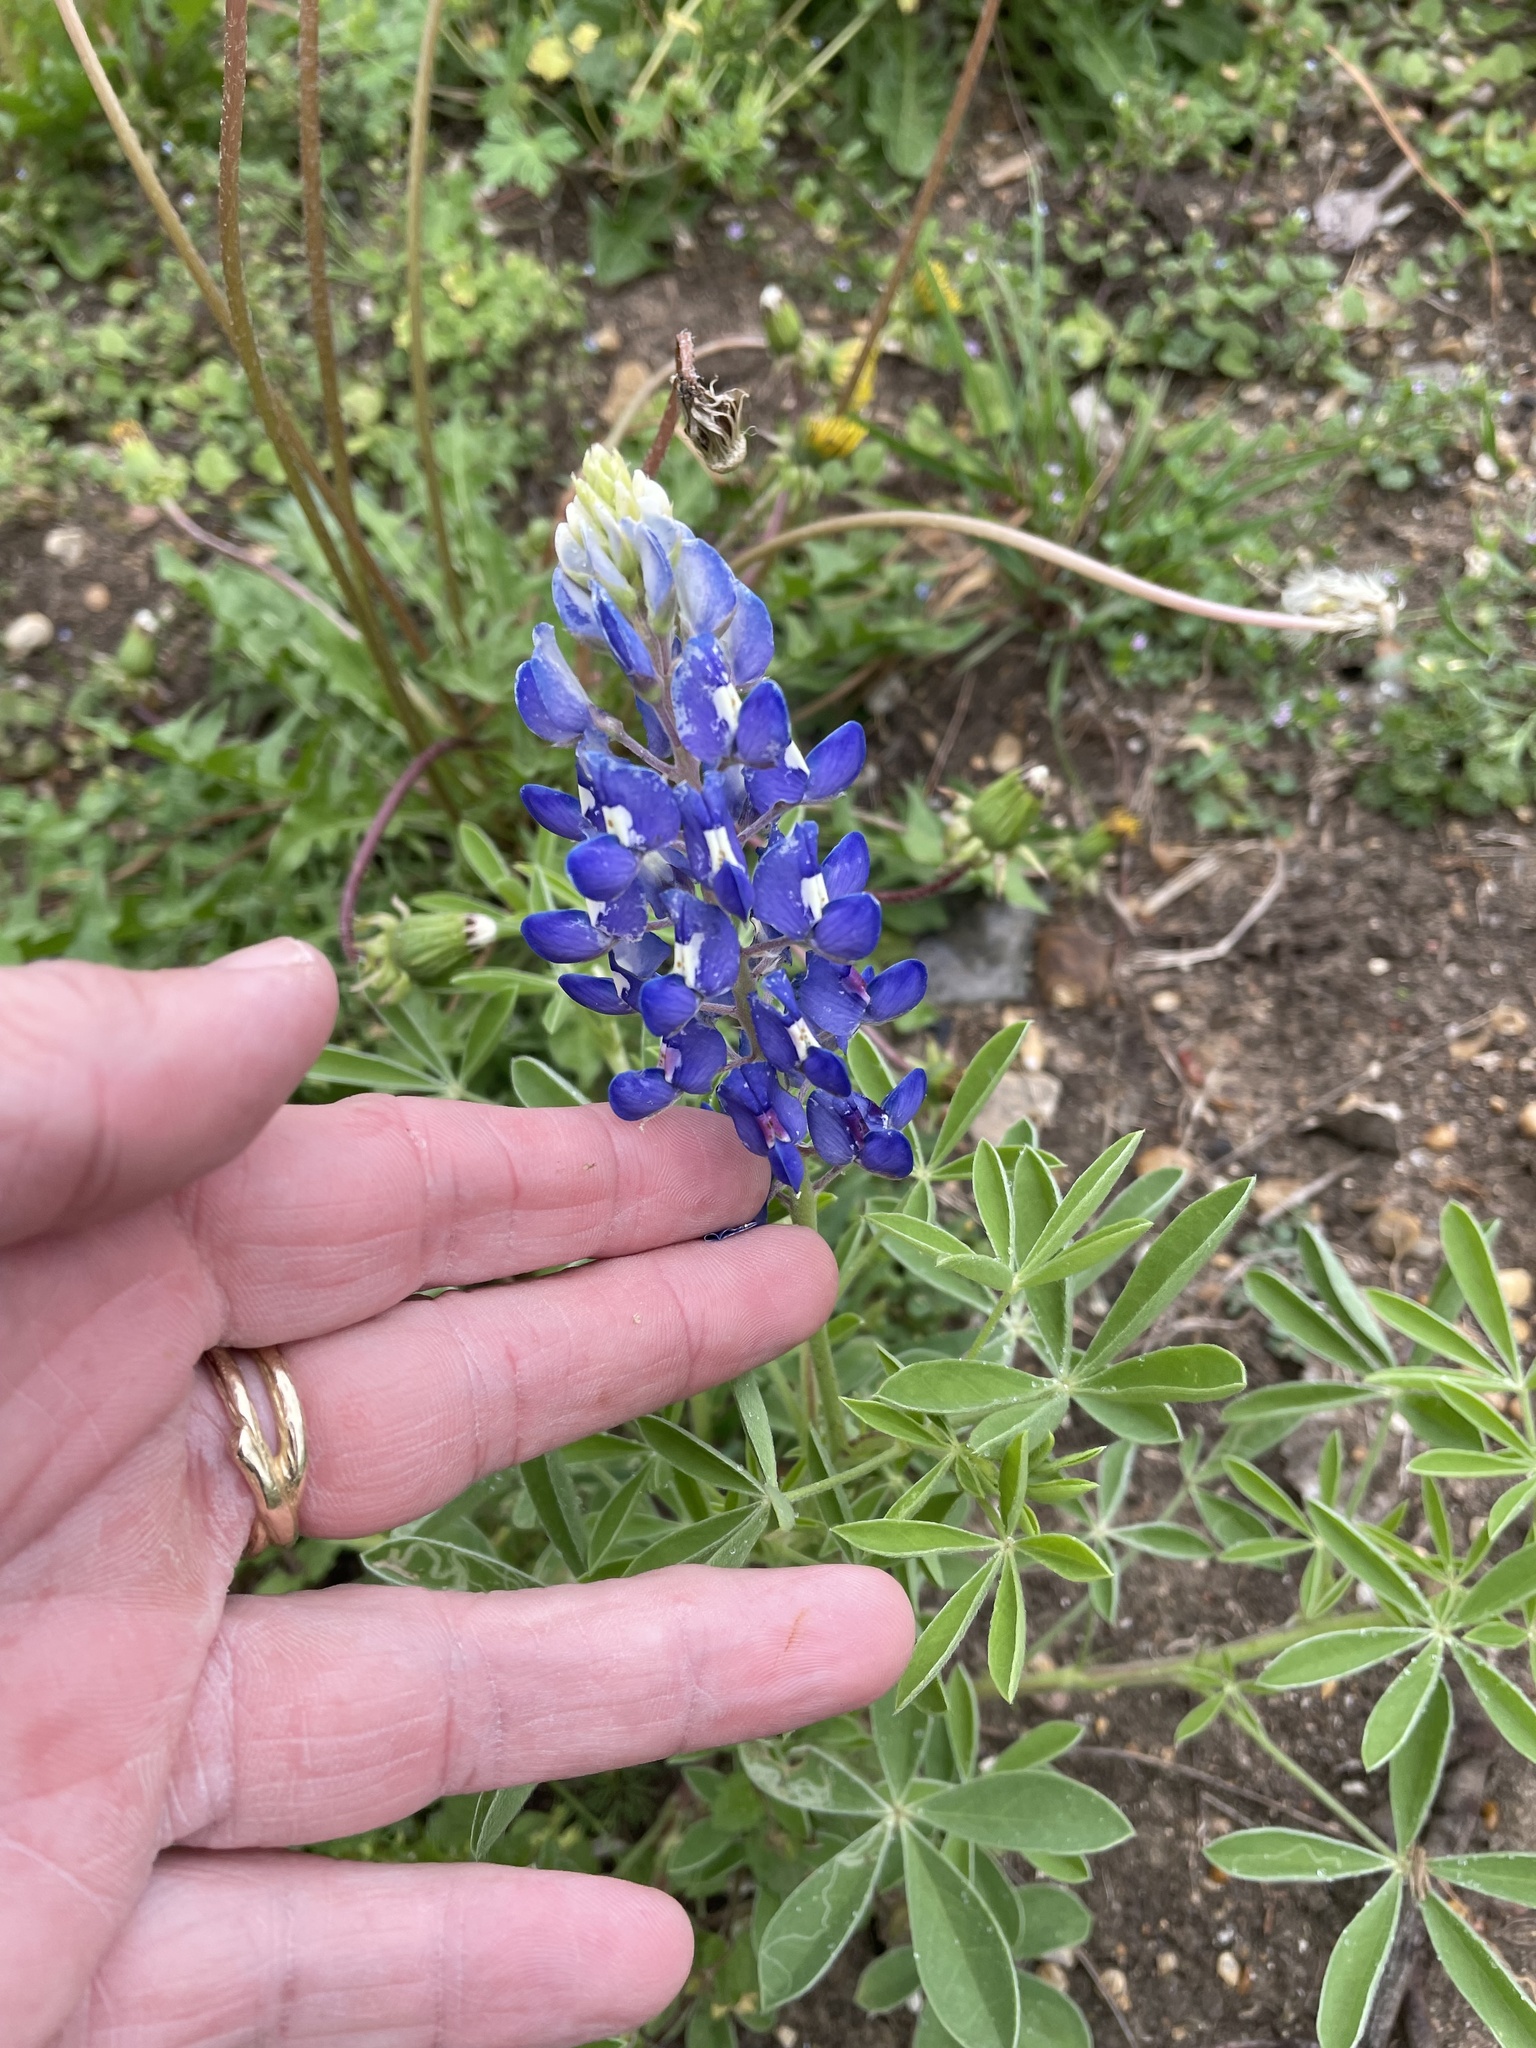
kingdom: Plantae
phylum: Tracheophyta
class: Magnoliopsida
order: Fabales
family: Fabaceae
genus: Lupinus
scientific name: Lupinus texensis
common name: Texas bluebonnet
